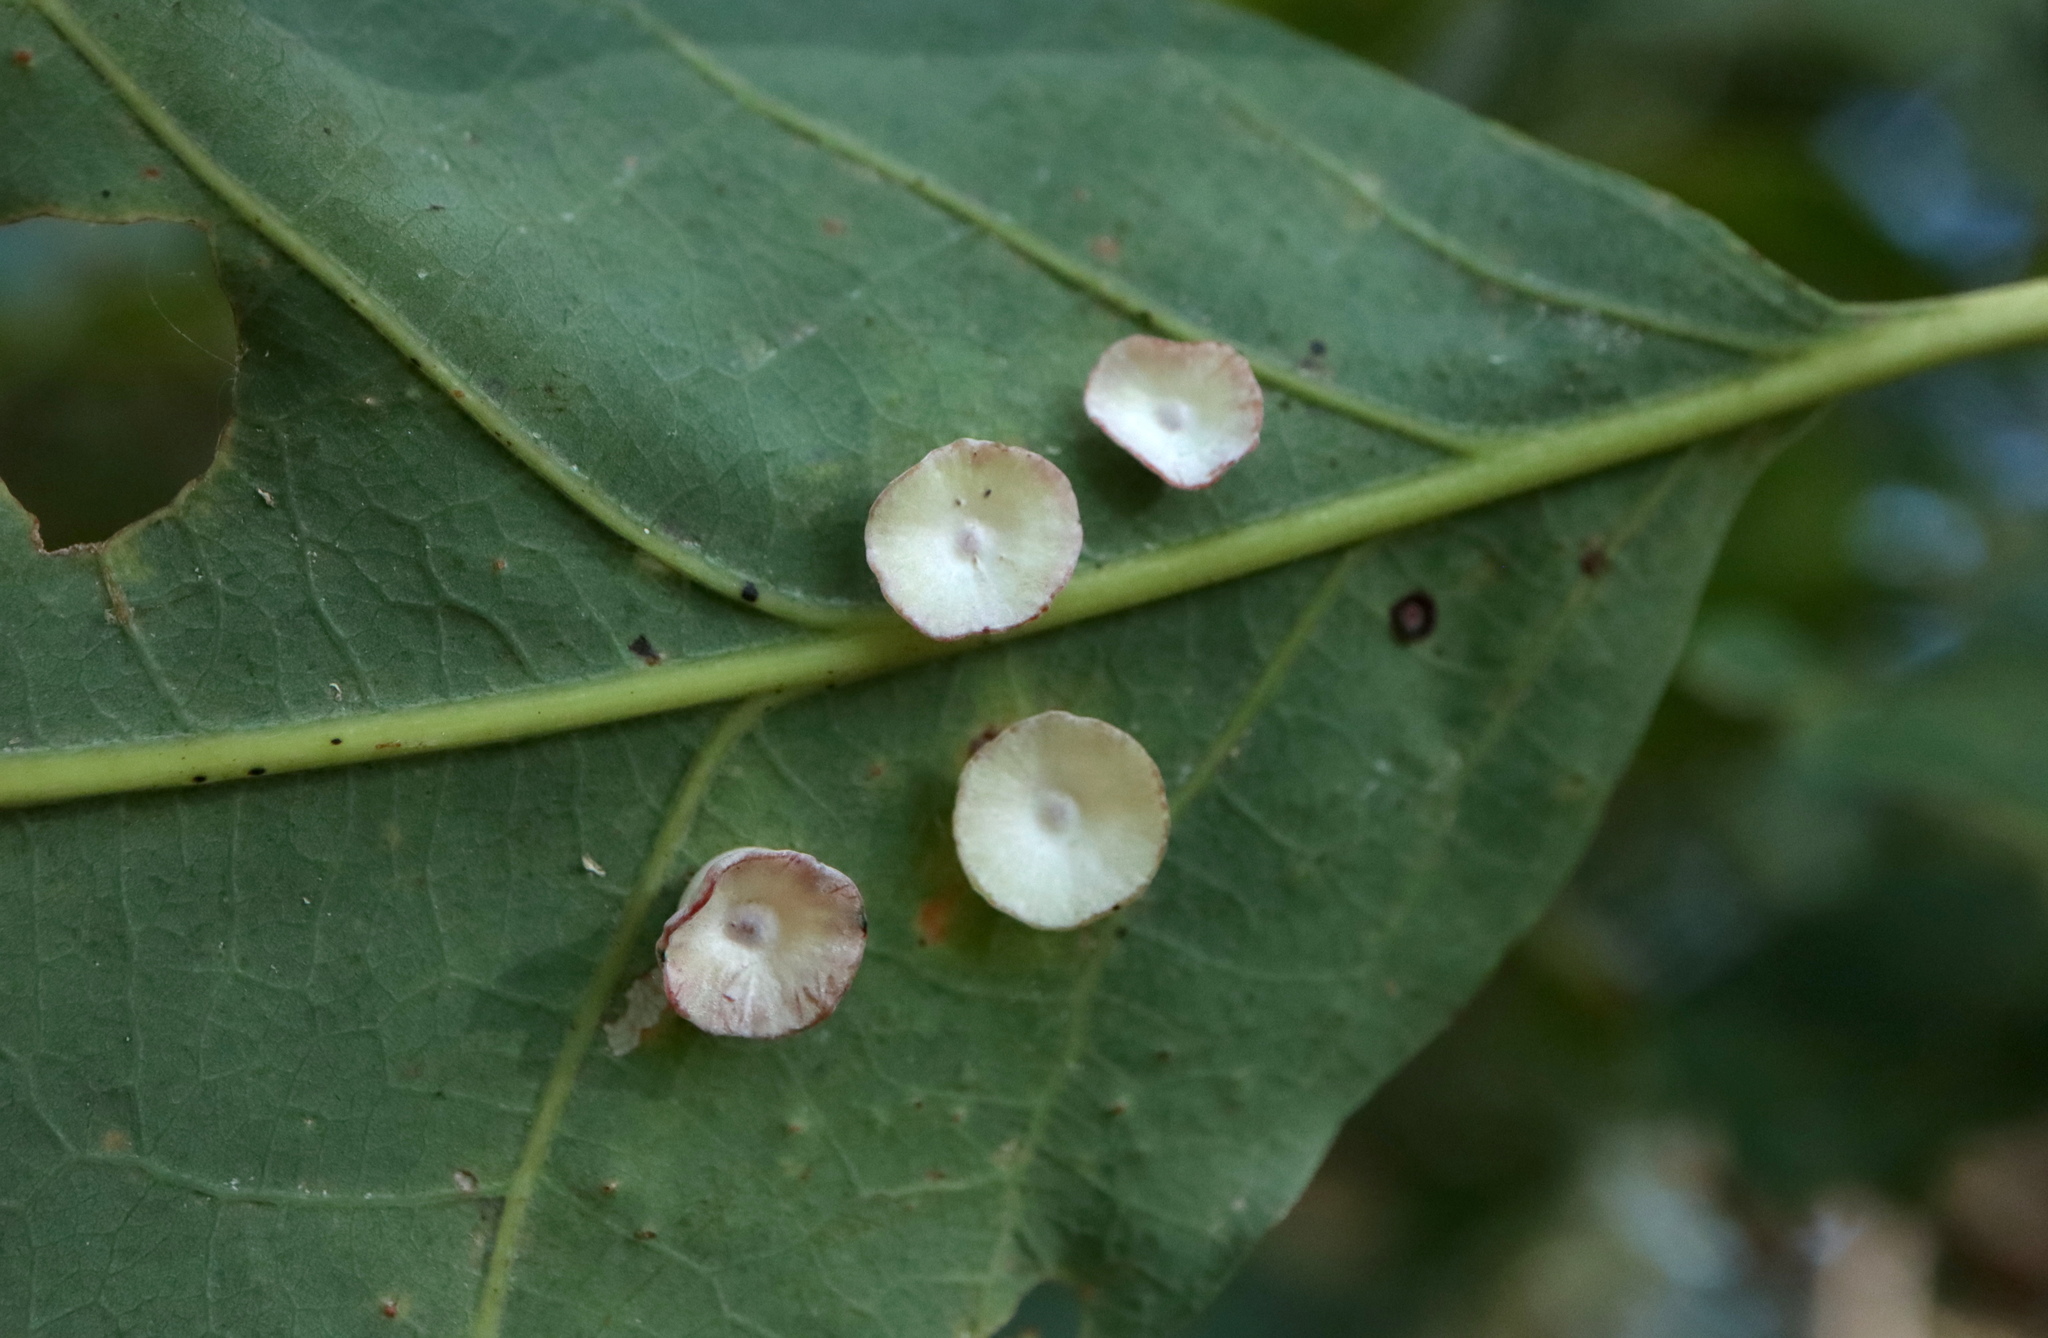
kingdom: Animalia
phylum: Arthropoda
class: Insecta
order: Hymenoptera
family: Cynipidae
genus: Phylloteras
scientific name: Phylloteras poculum
